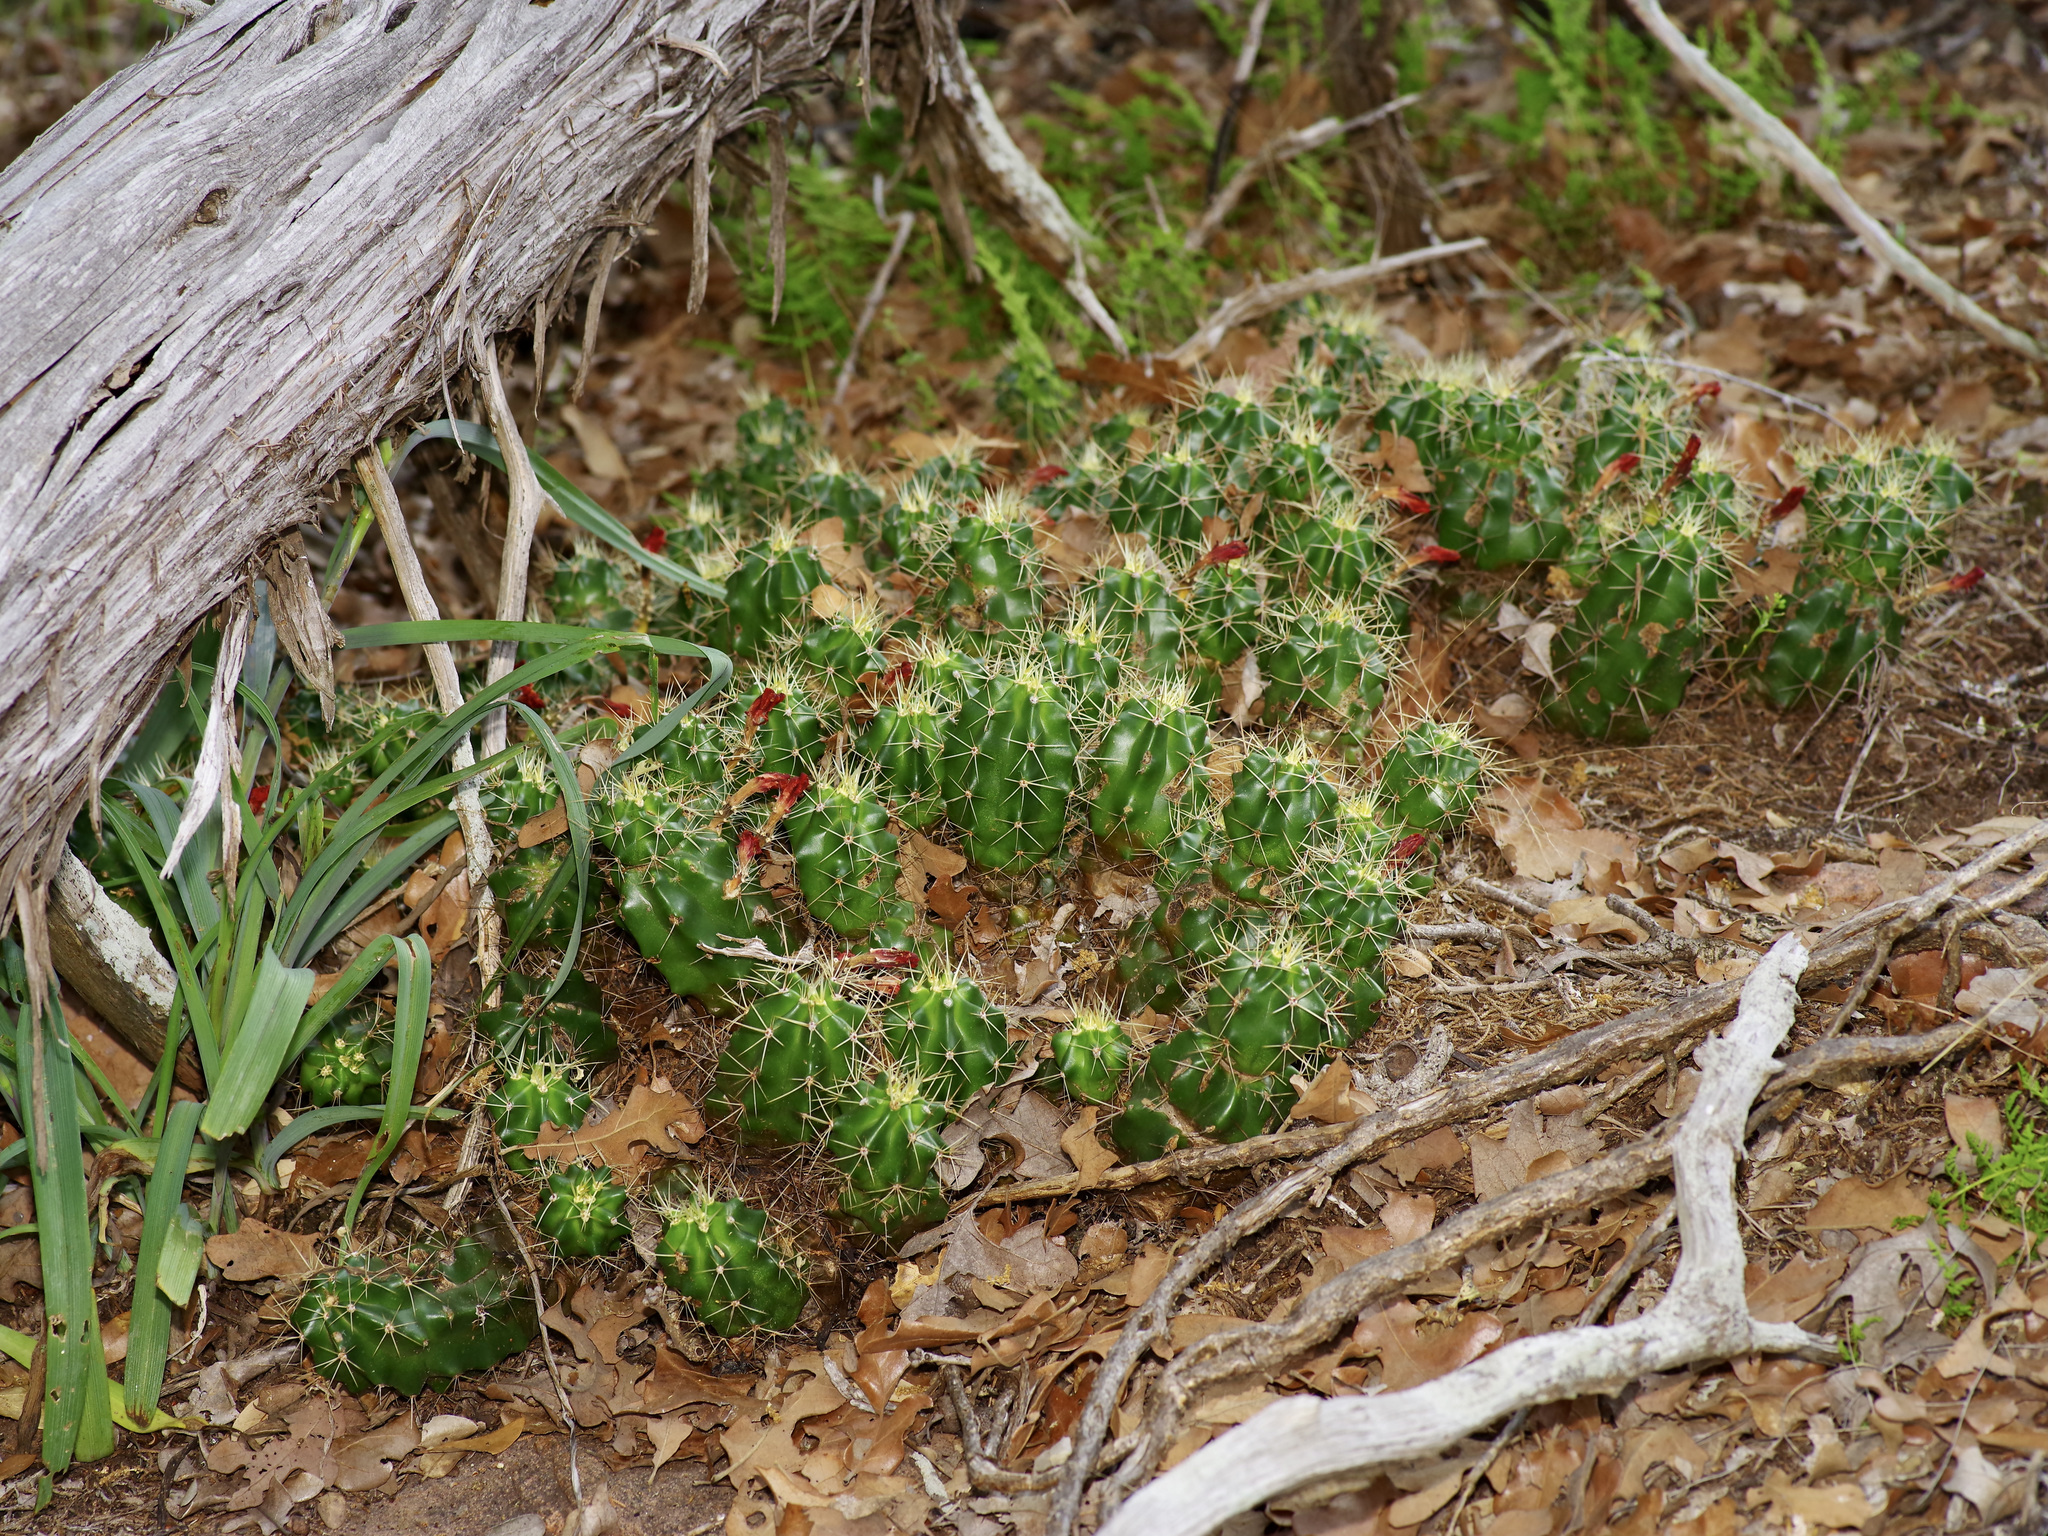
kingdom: Plantae
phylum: Tracheophyta
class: Magnoliopsida
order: Caryophyllales
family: Cactaceae
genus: Echinocereus
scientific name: Echinocereus coccineus
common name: Scarlet hedgehog cactus
